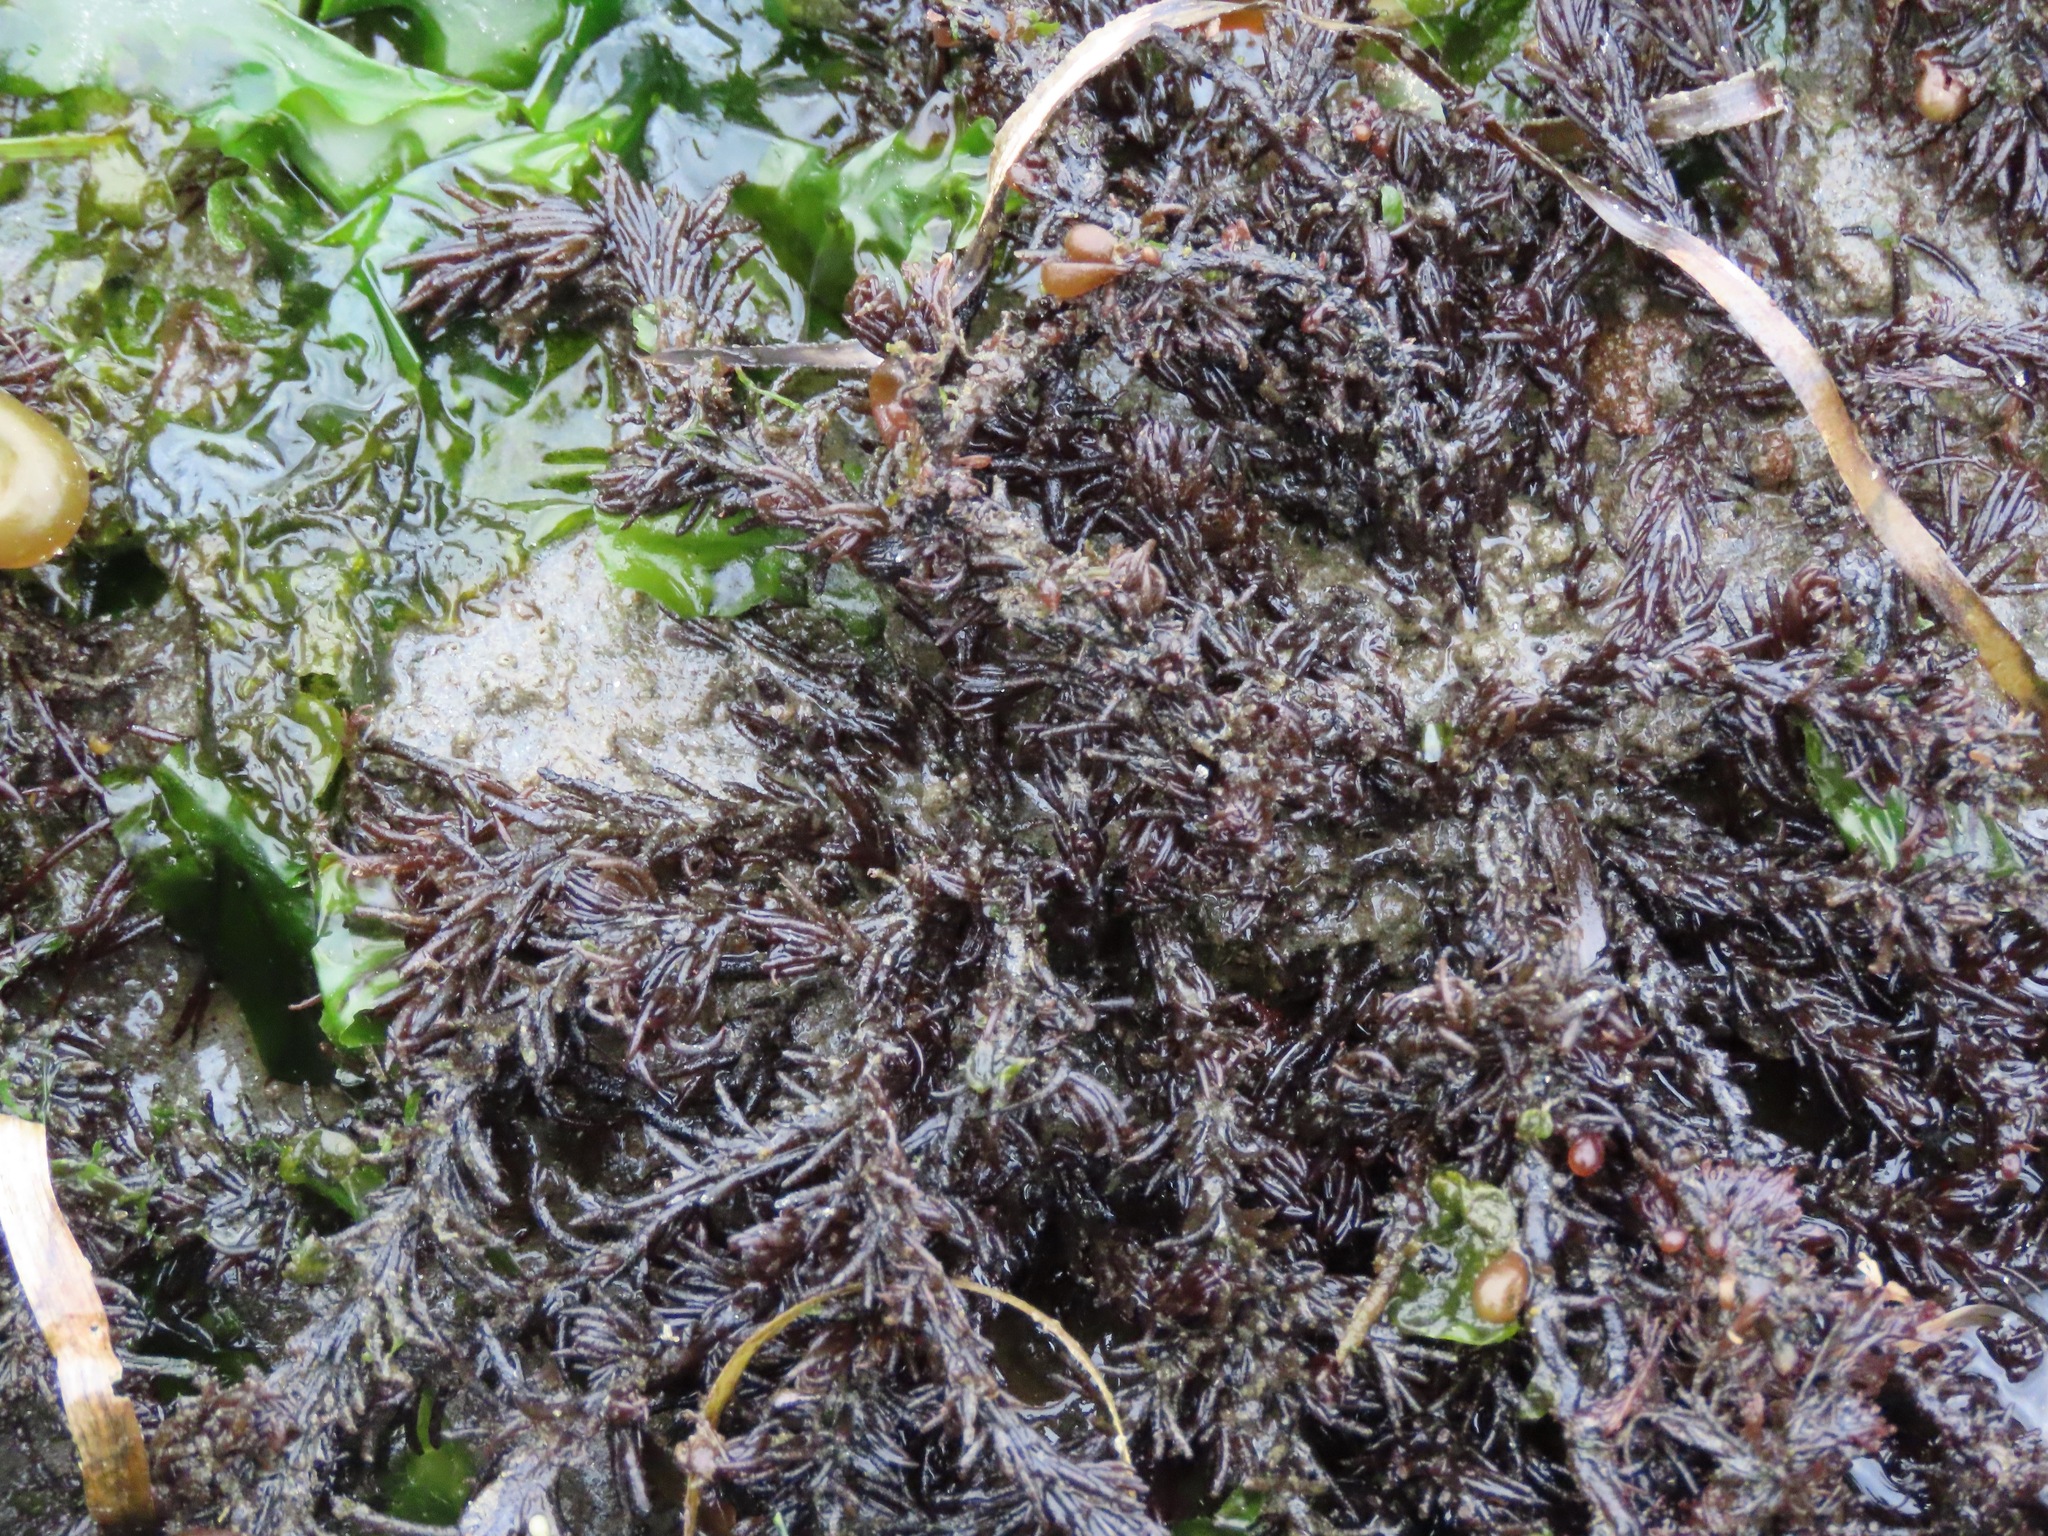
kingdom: Plantae
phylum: Rhodophyta
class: Florideophyceae
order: Ceramiales
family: Rhodomelaceae
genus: Neorhodomela
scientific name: Neorhodomela larix
